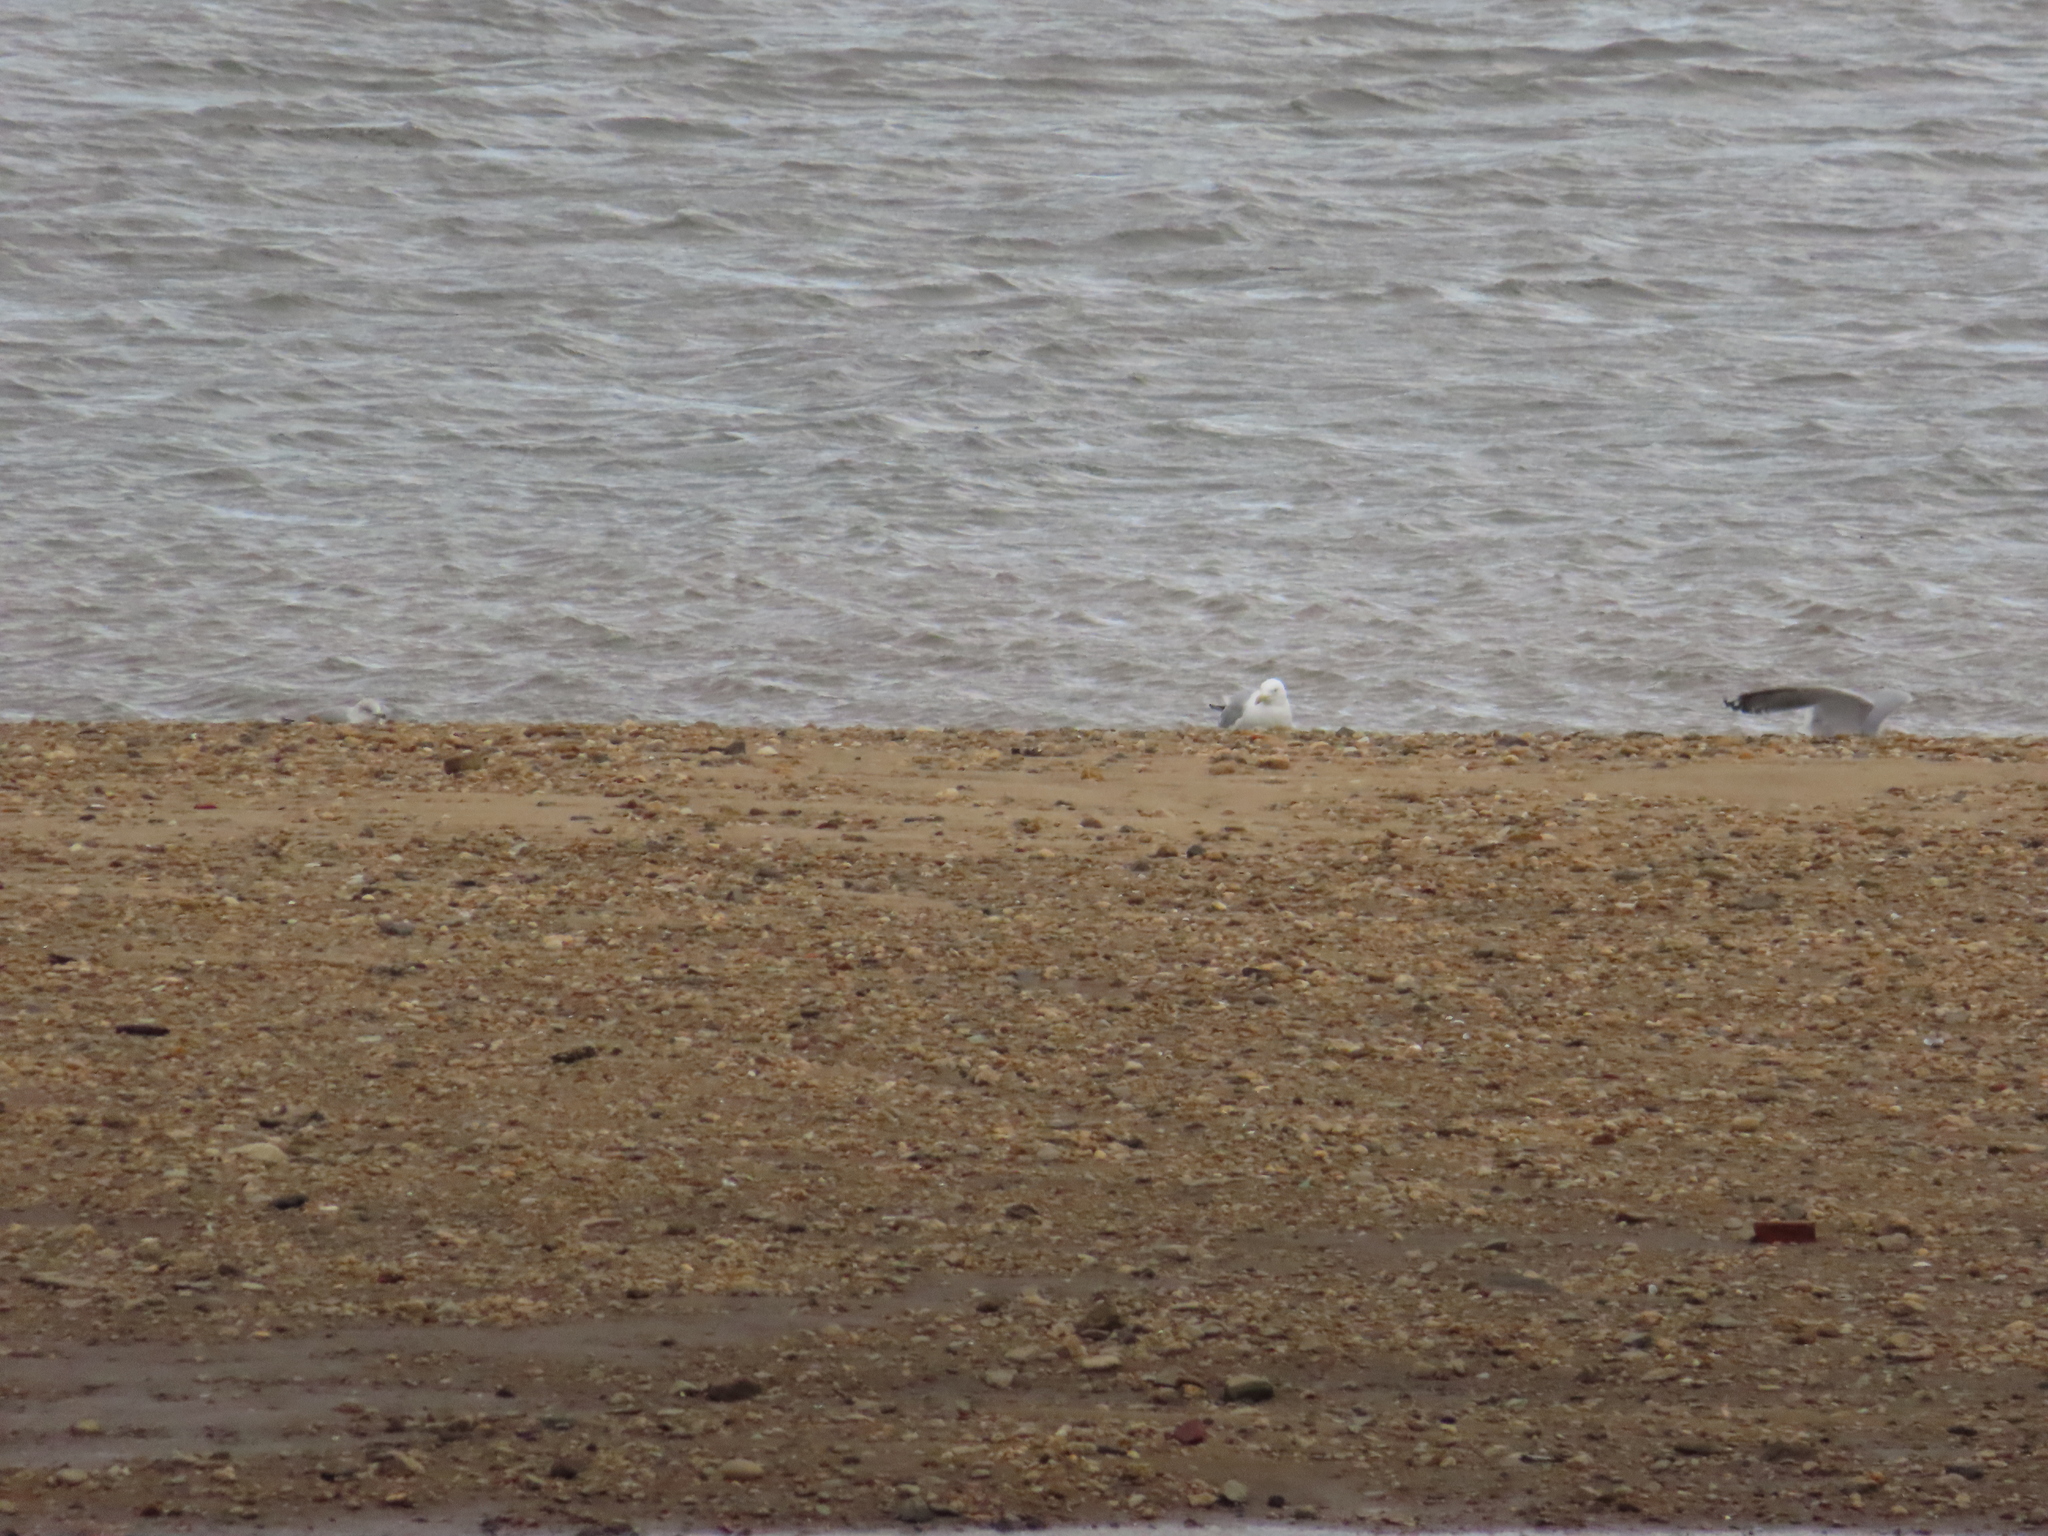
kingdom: Animalia
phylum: Chordata
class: Aves
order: Charadriiformes
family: Laridae
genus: Larus
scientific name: Larus argentatus
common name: Herring gull
